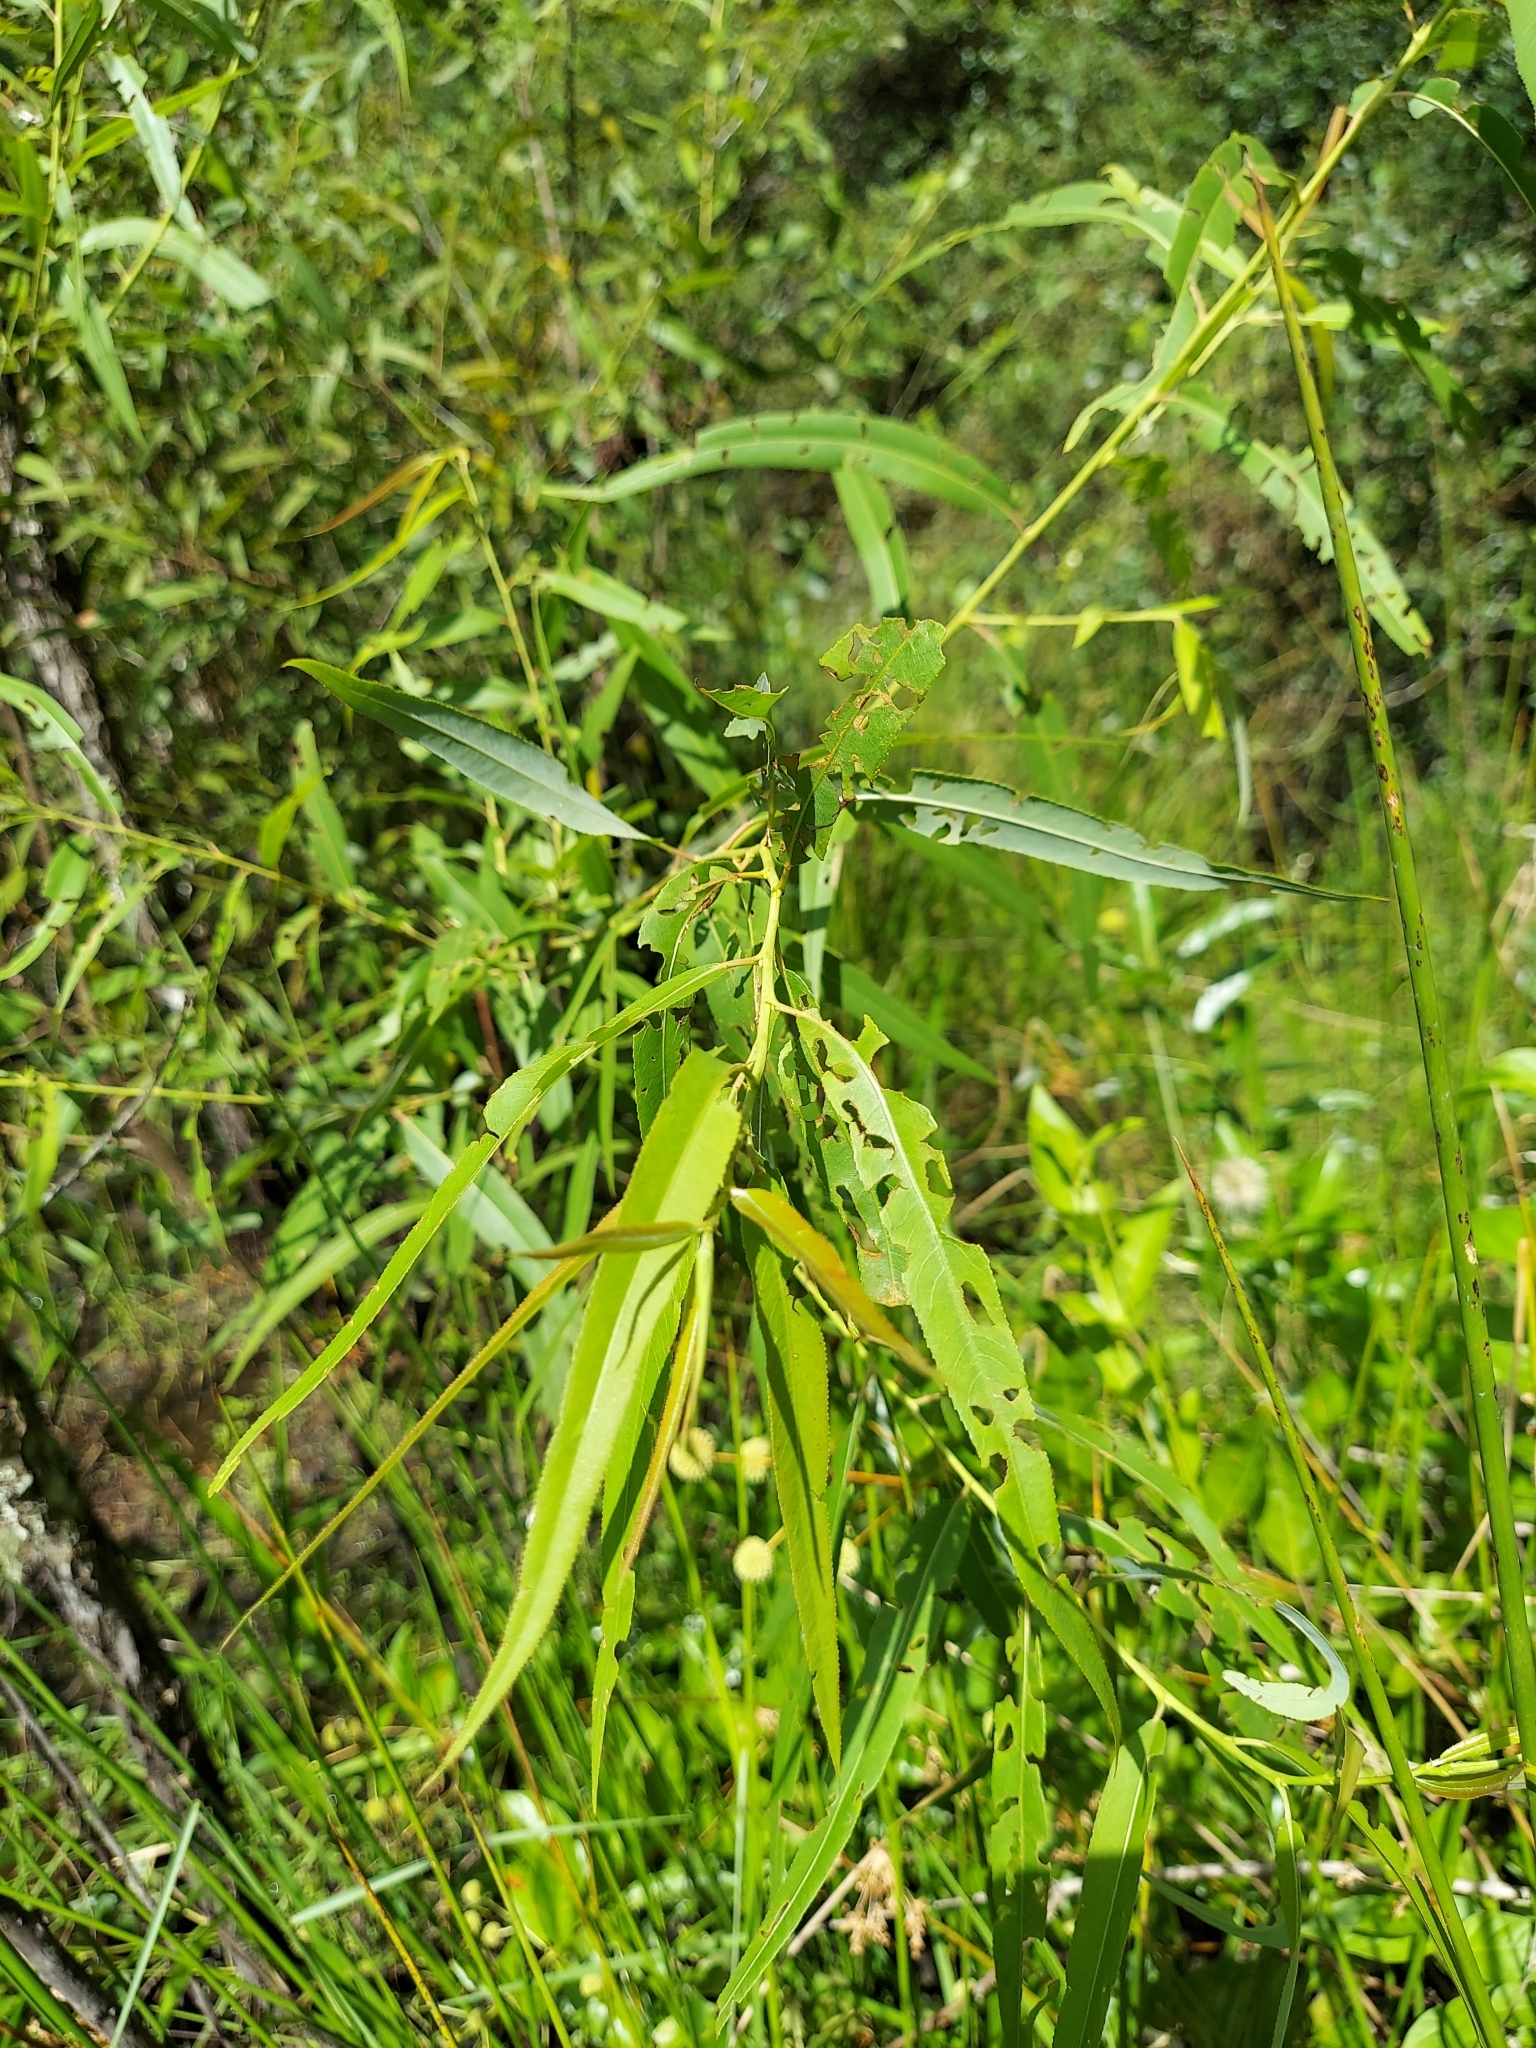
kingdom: Plantae
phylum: Tracheophyta
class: Magnoliopsida
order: Malpighiales
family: Salicaceae
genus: Salix
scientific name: Salix caroliniana
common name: Carolina willow
